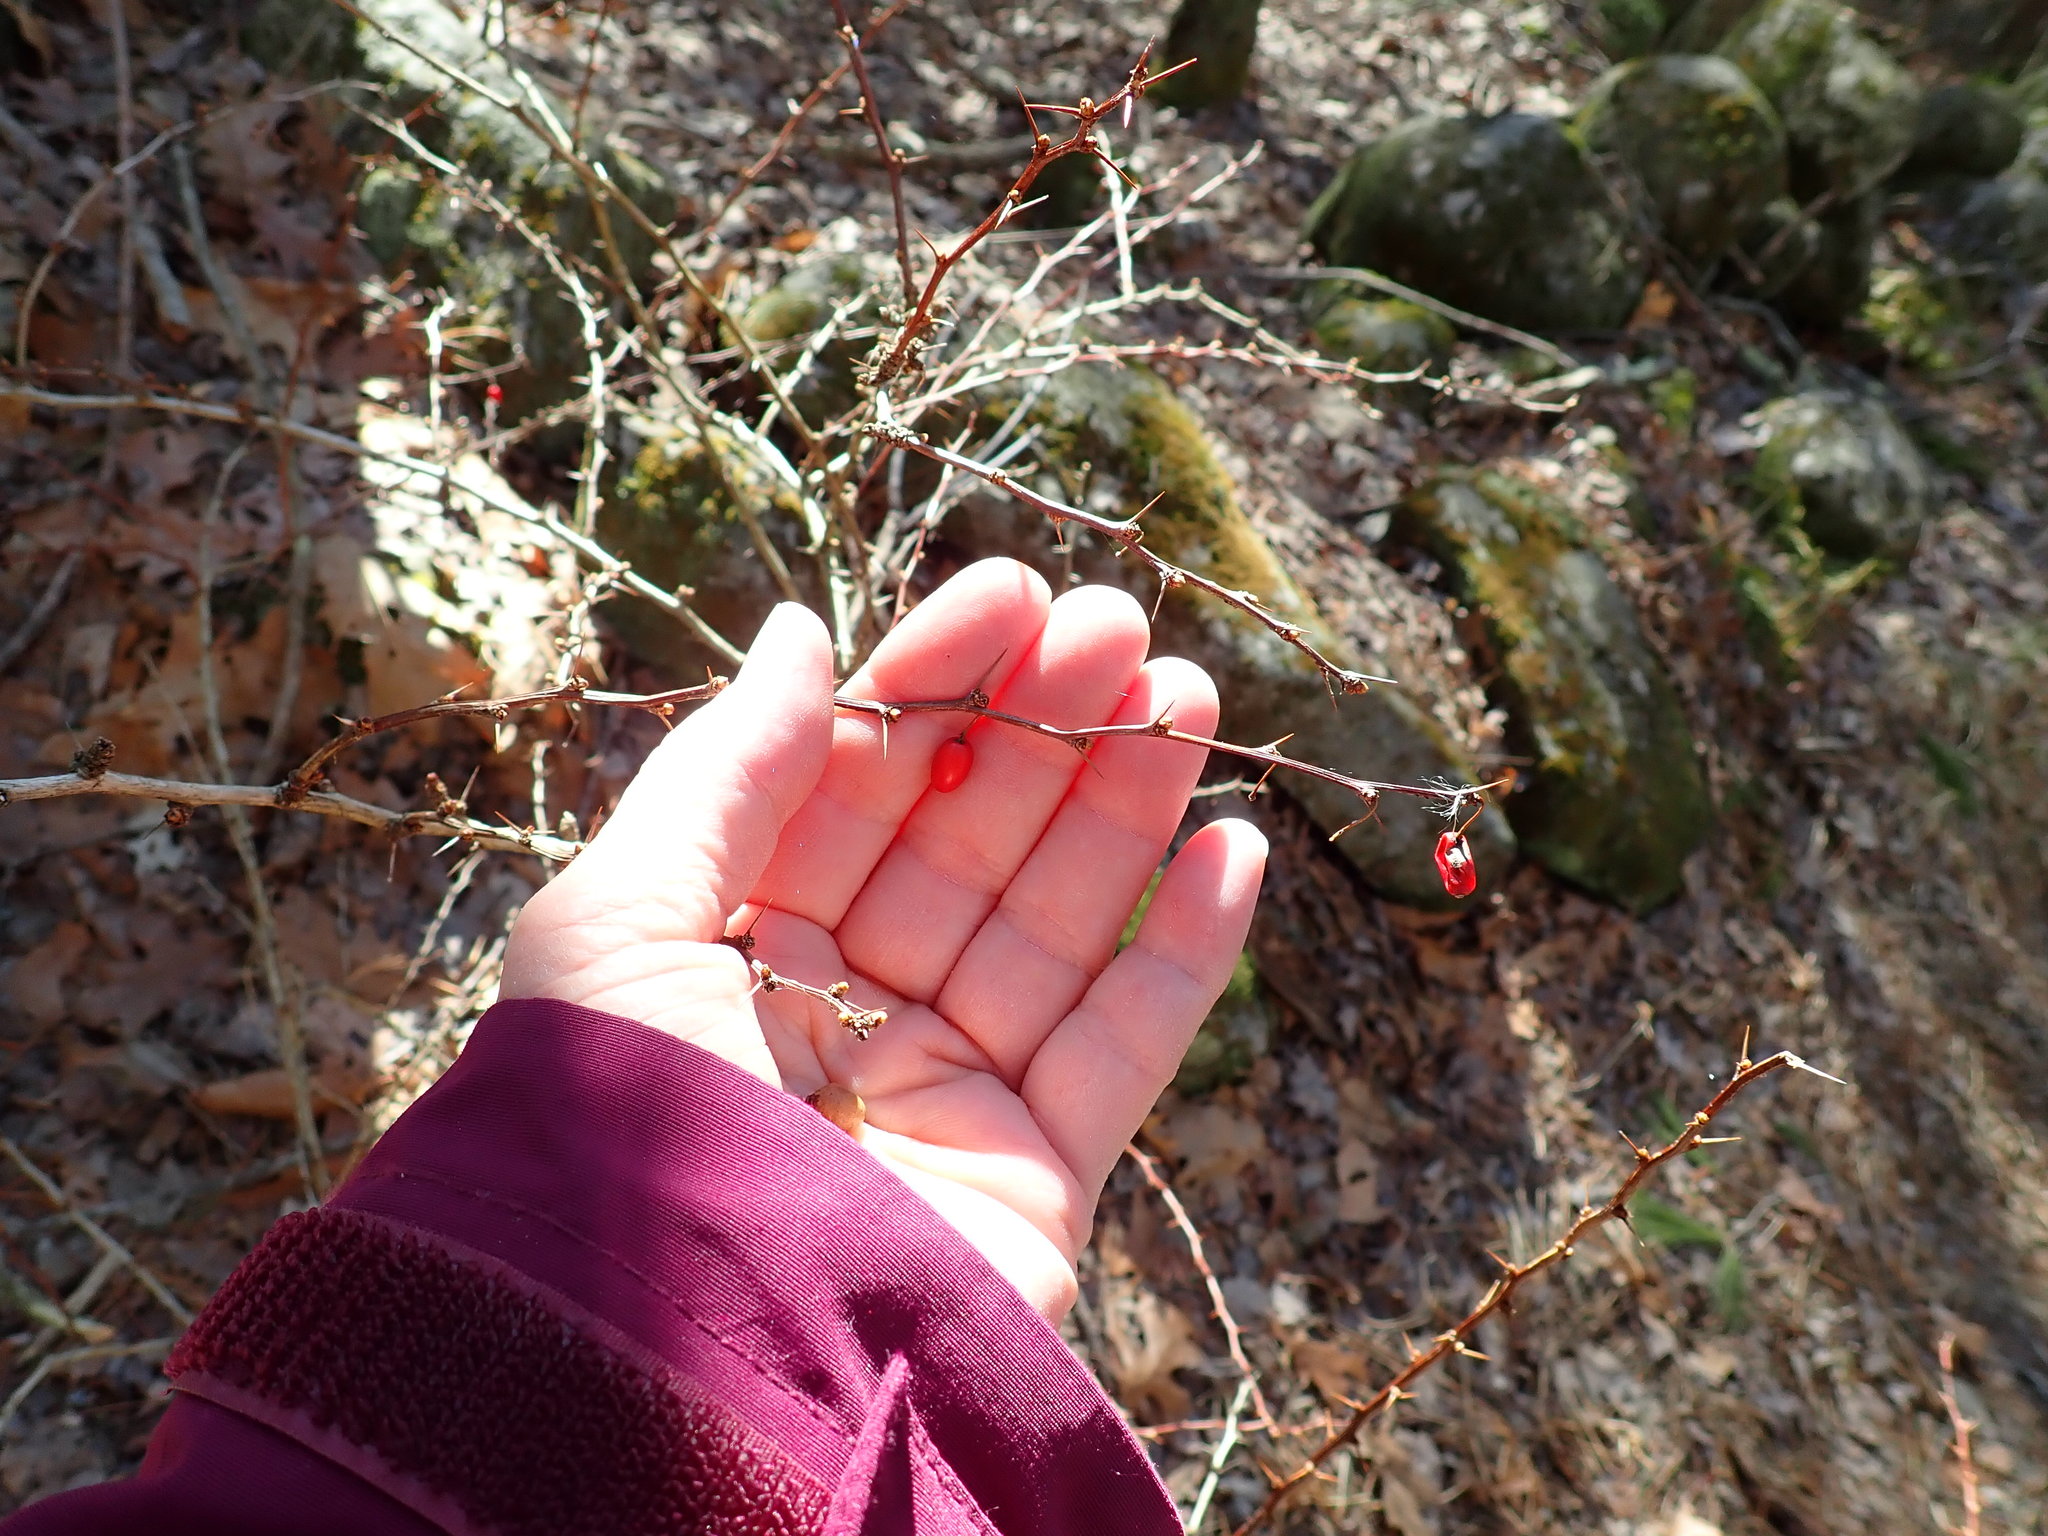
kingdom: Plantae
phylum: Tracheophyta
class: Magnoliopsida
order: Ranunculales
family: Berberidaceae
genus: Berberis
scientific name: Berberis thunbergii
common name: Japanese barberry
